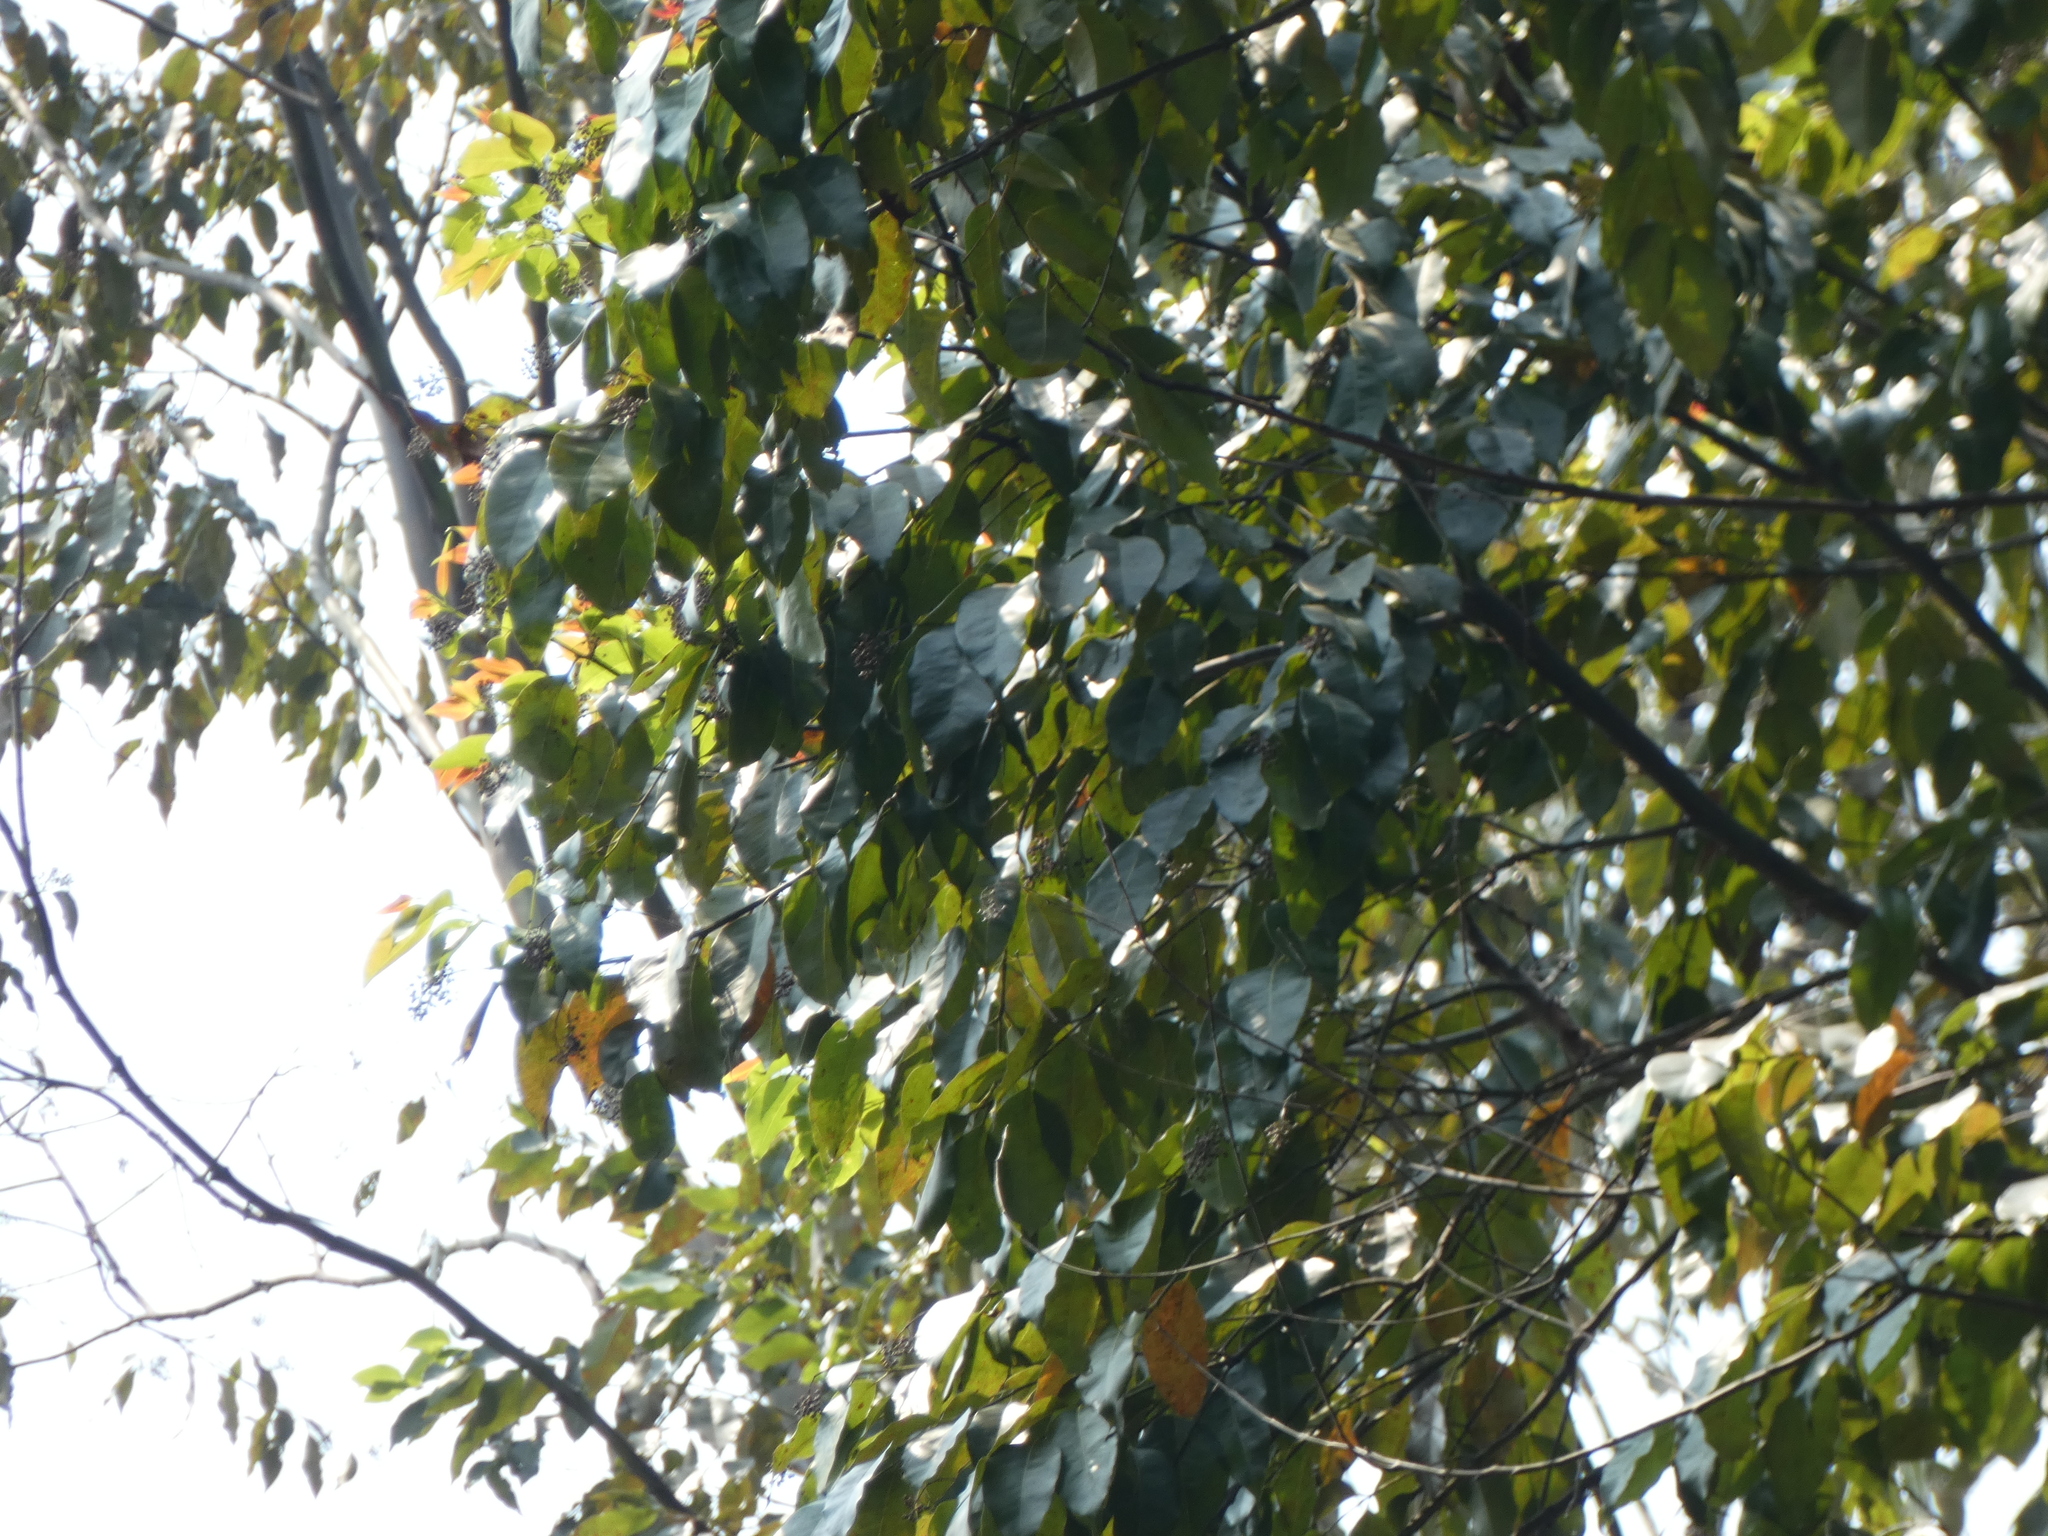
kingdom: Plantae
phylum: Tracheophyta
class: Magnoliopsida
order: Myrtales
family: Myrtaceae
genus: Eucalyptus
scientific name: Eucalyptus deglupta
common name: Mindanao gum
